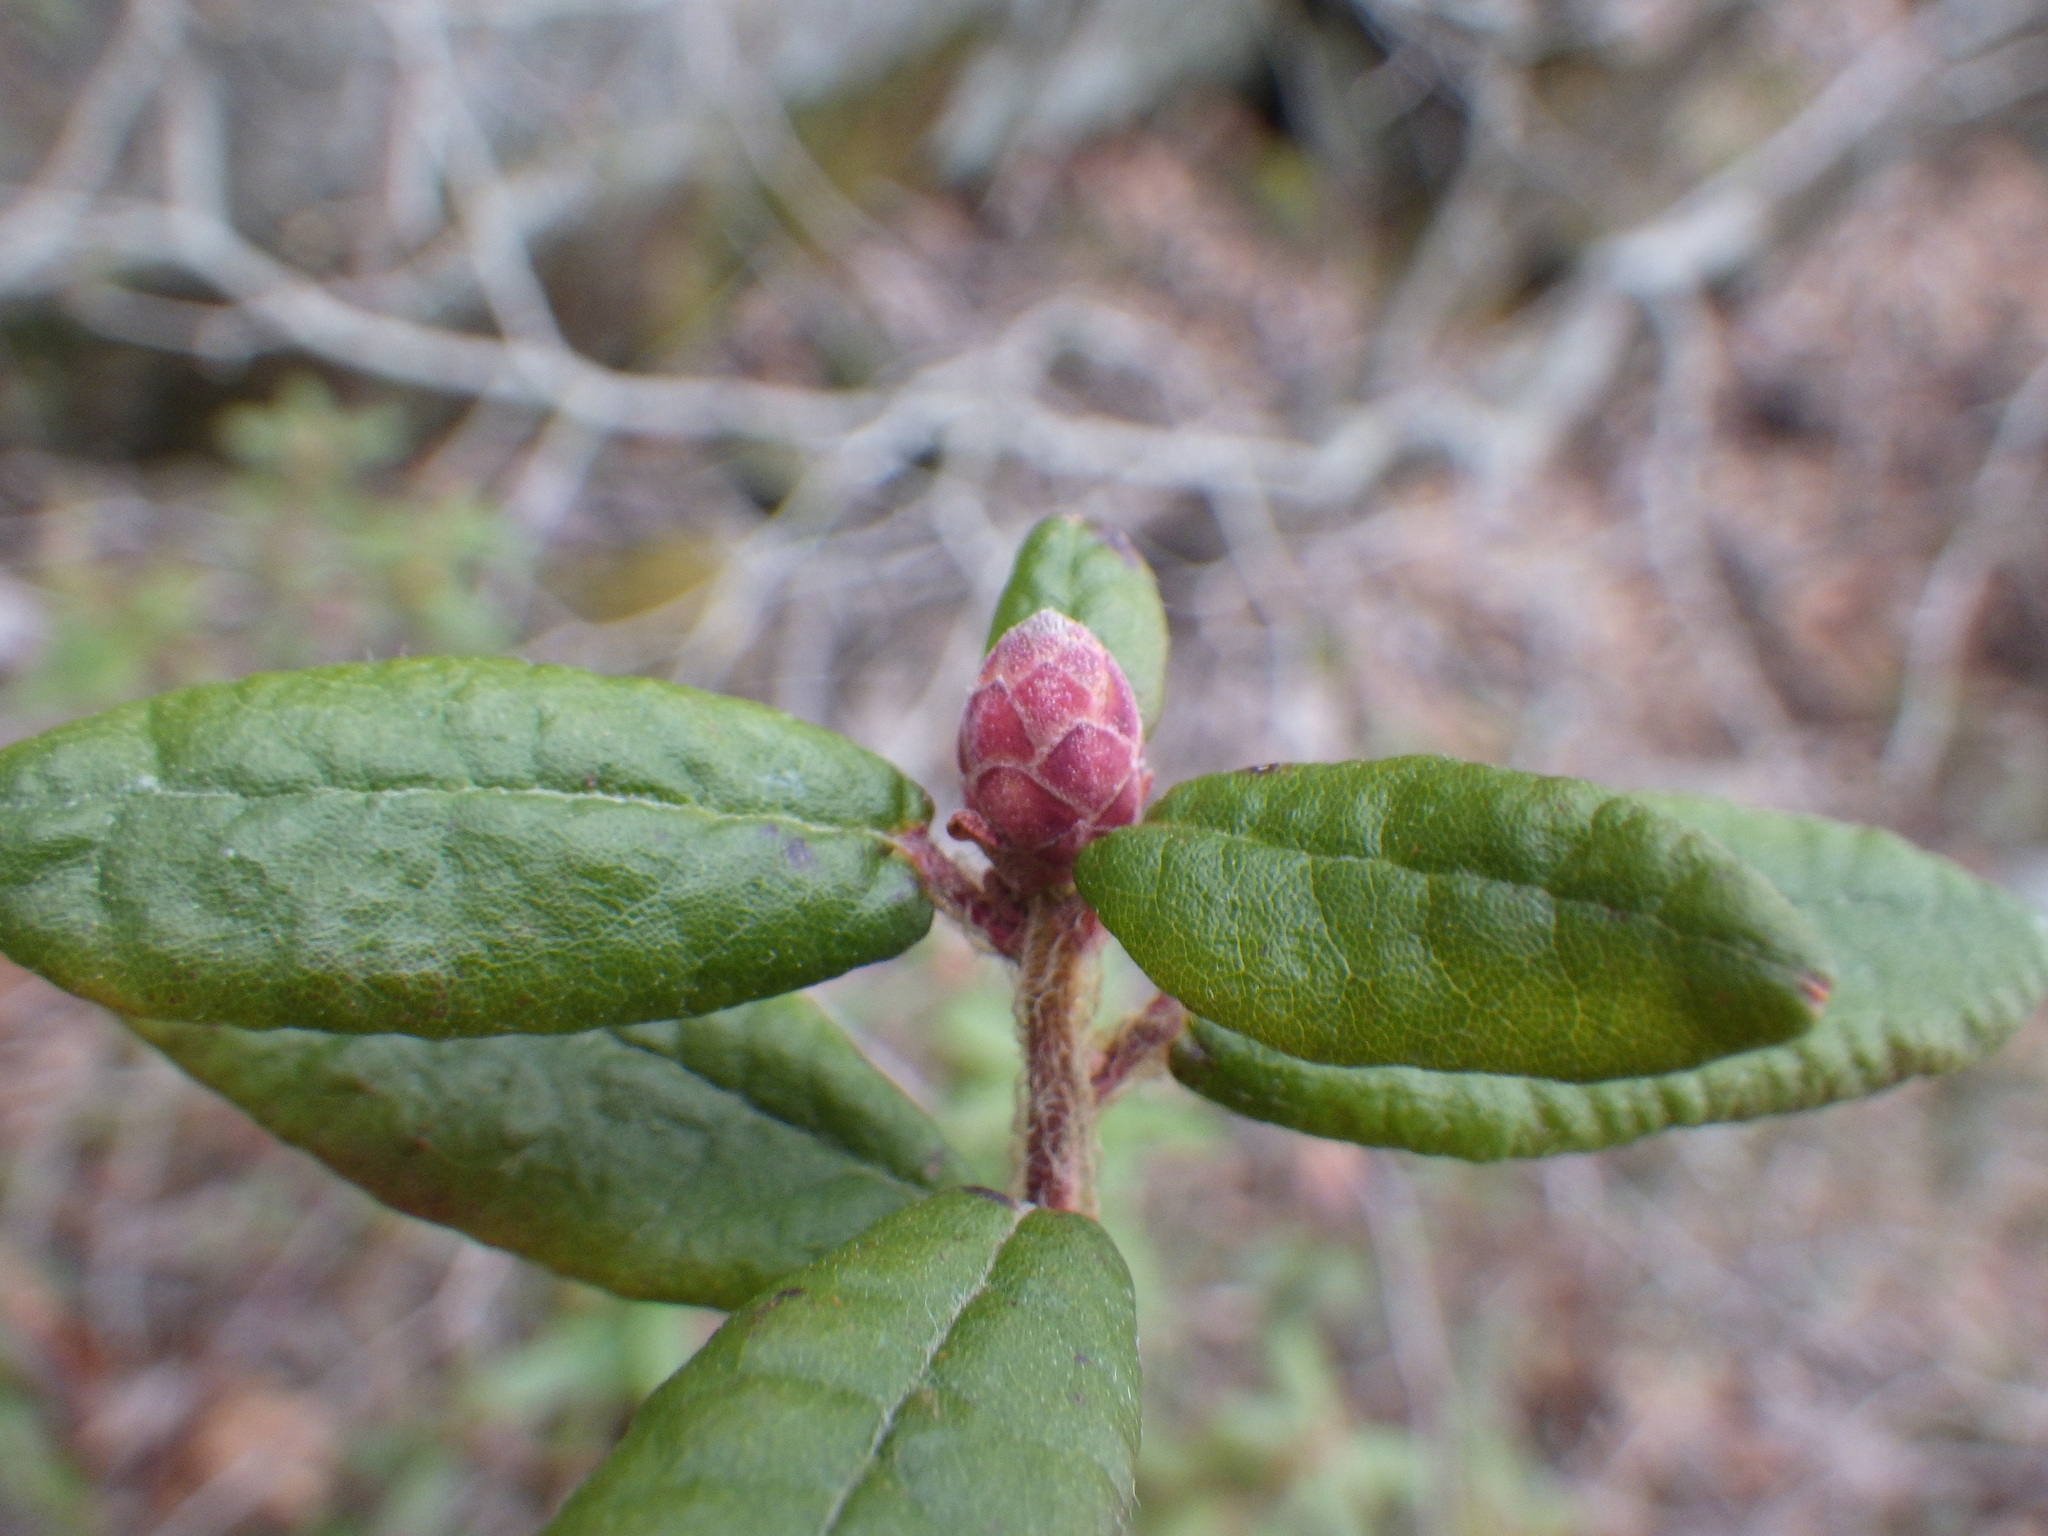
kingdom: Plantae
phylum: Tracheophyta
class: Magnoliopsida
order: Ericales
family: Ericaceae
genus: Rhododendron
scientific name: Rhododendron groenlandicum
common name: Bog labrador tea
